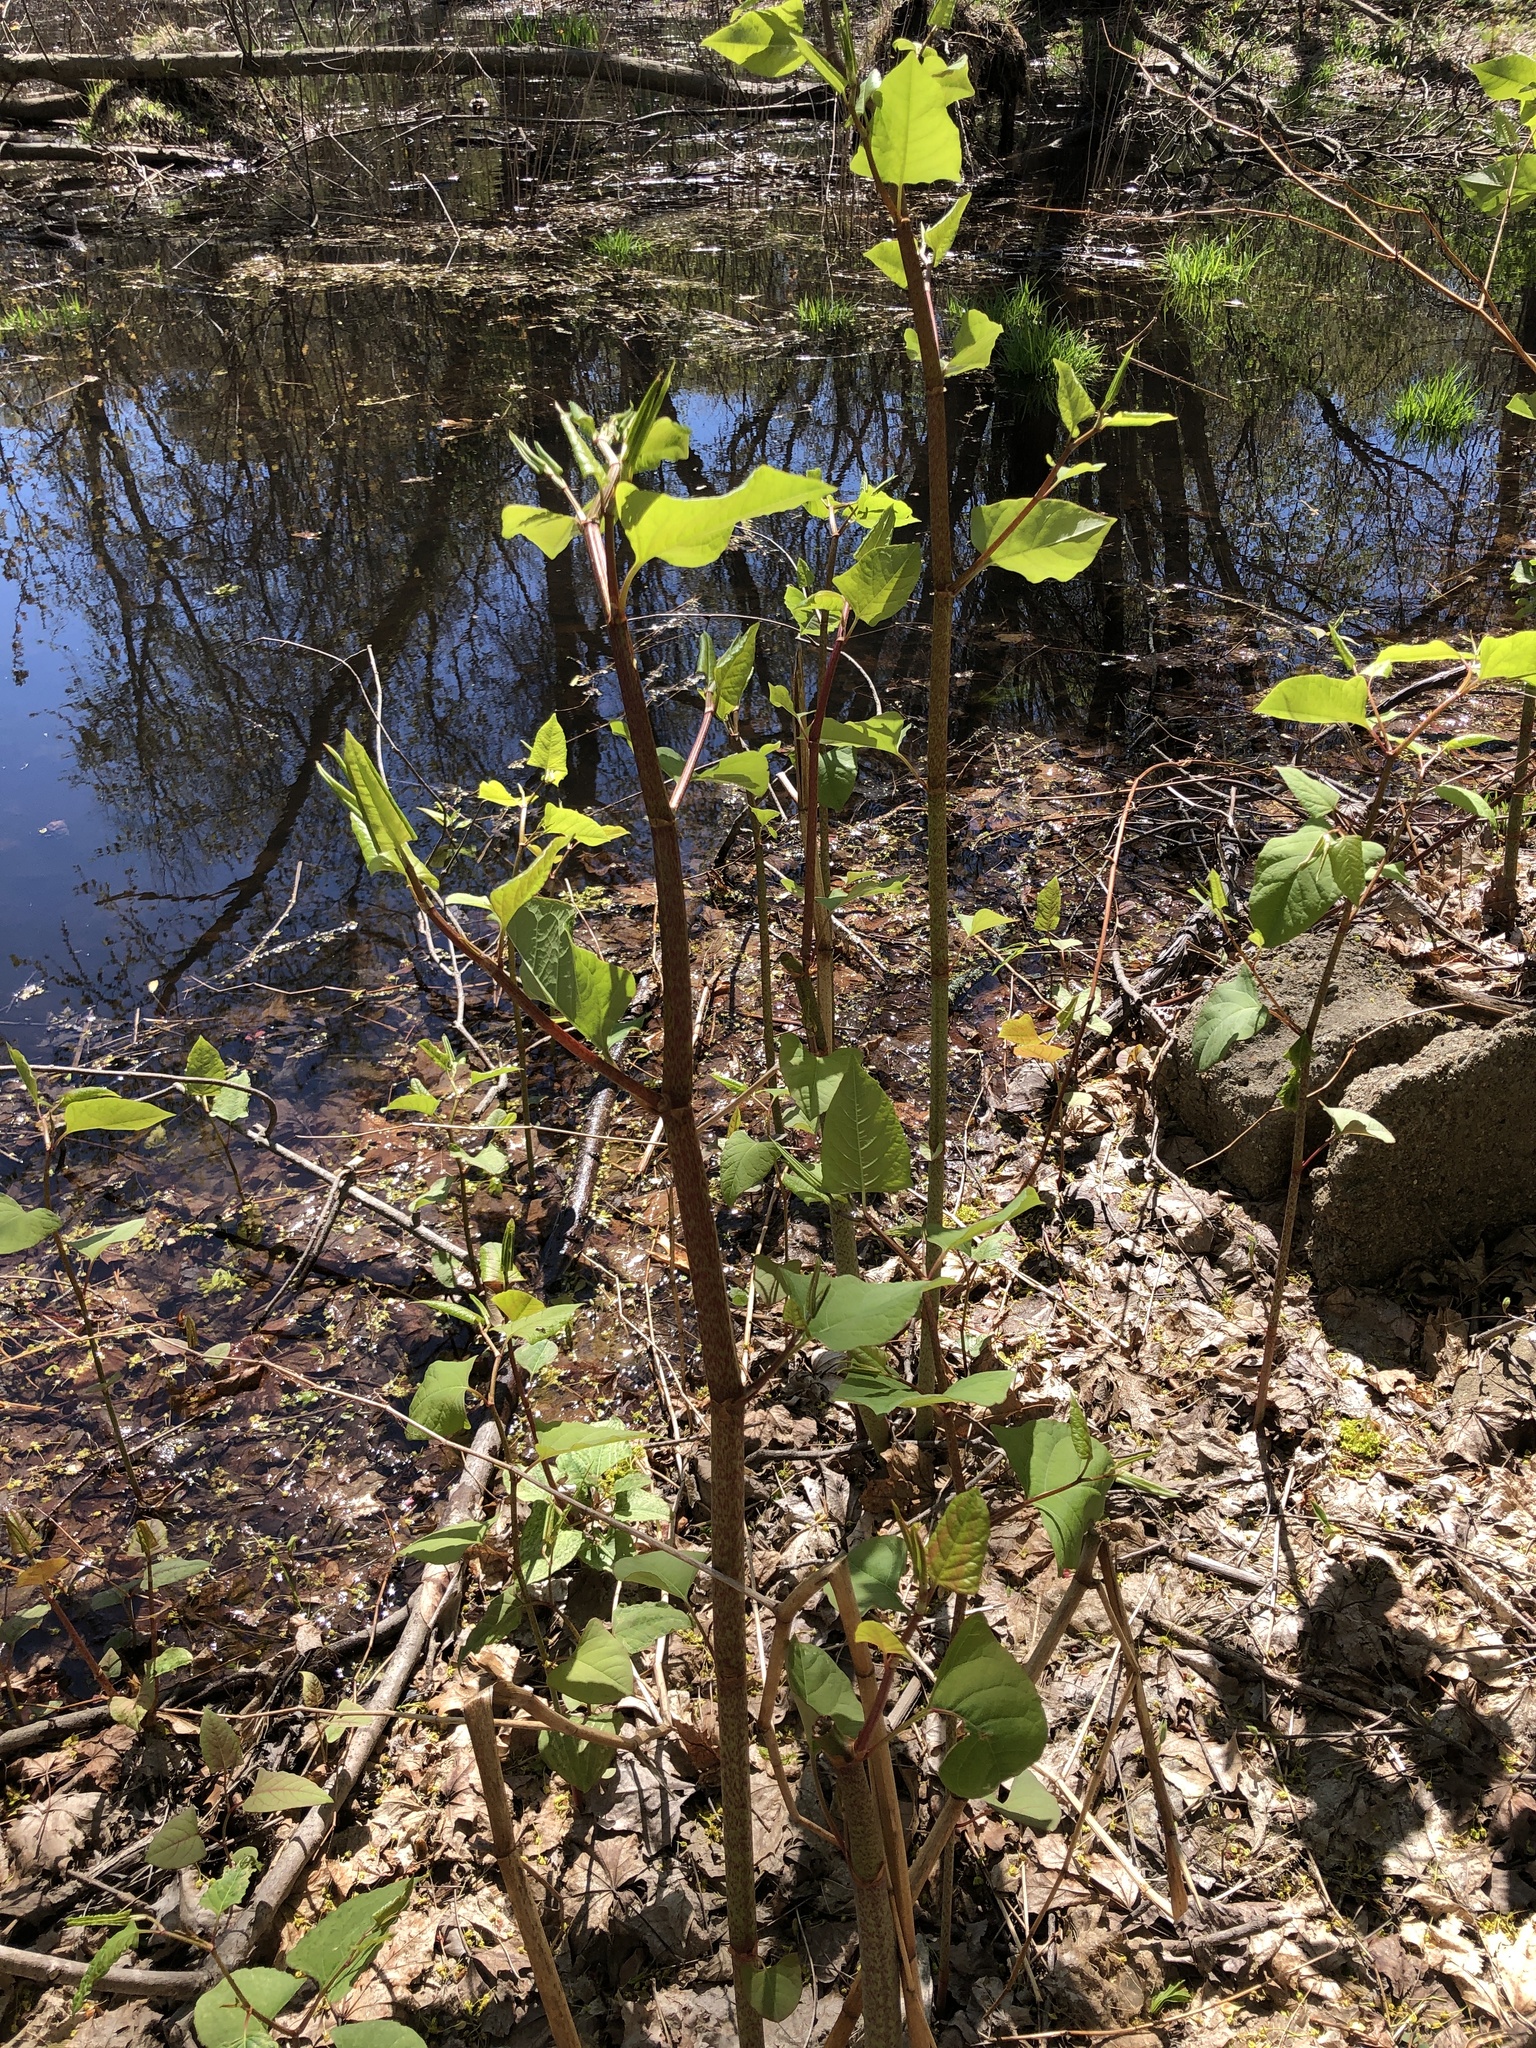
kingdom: Plantae
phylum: Tracheophyta
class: Magnoliopsida
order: Caryophyllales
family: Polygonaceae
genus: Reynoutria
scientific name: Reynoutria japonica
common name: Japanese knotweed
